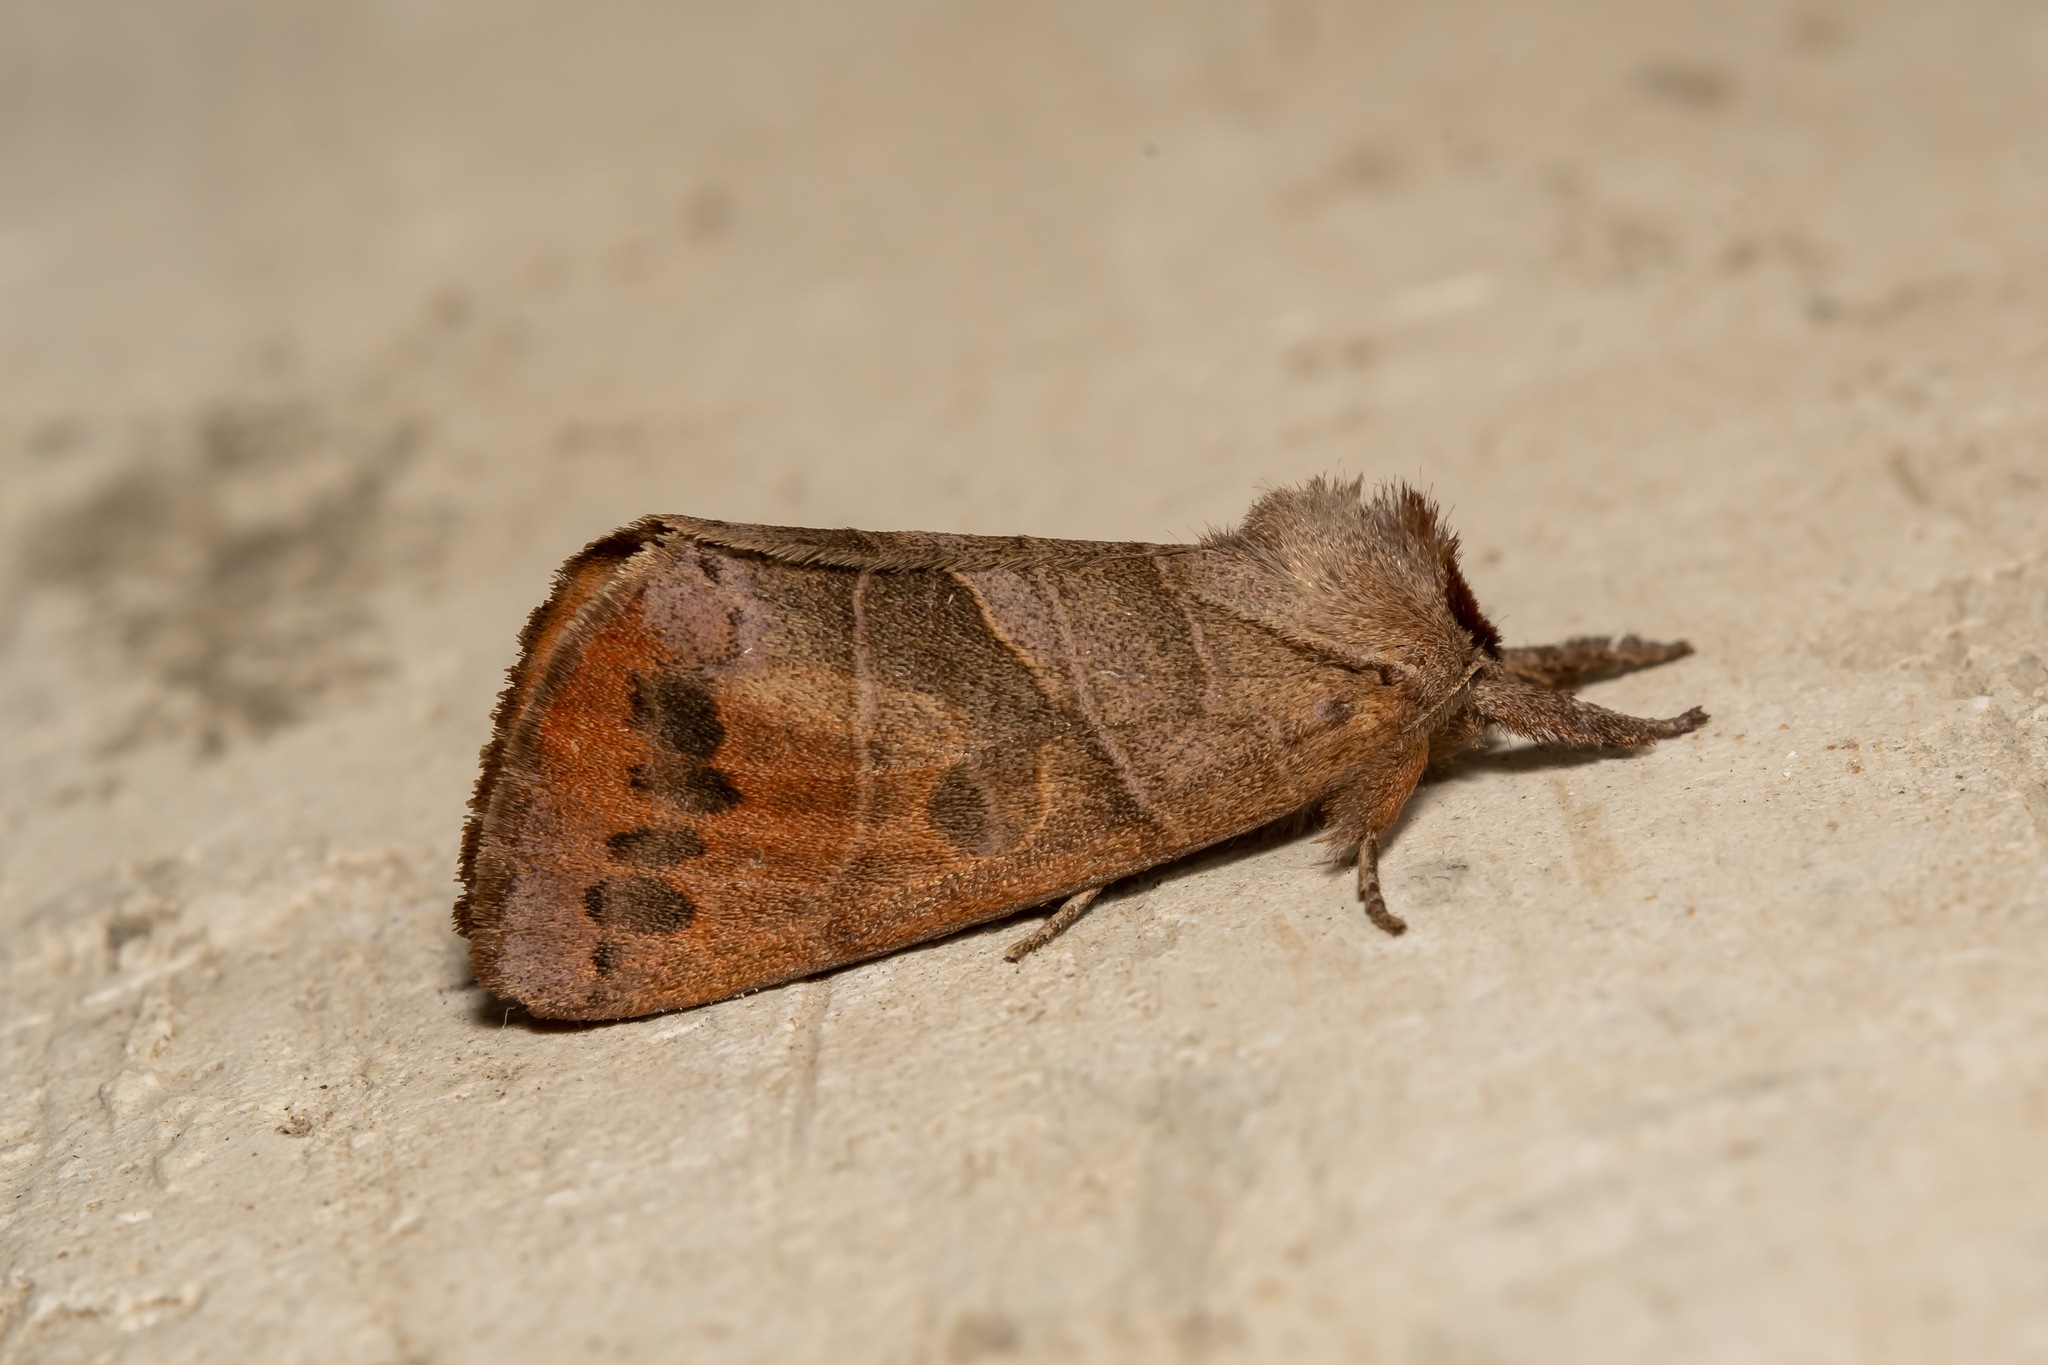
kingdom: Animalia
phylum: Arthropoda
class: Insecta
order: Lepidoptera
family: Notodontidae
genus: Clostera
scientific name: Clostera anastomosis
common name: Poplar tip moth
